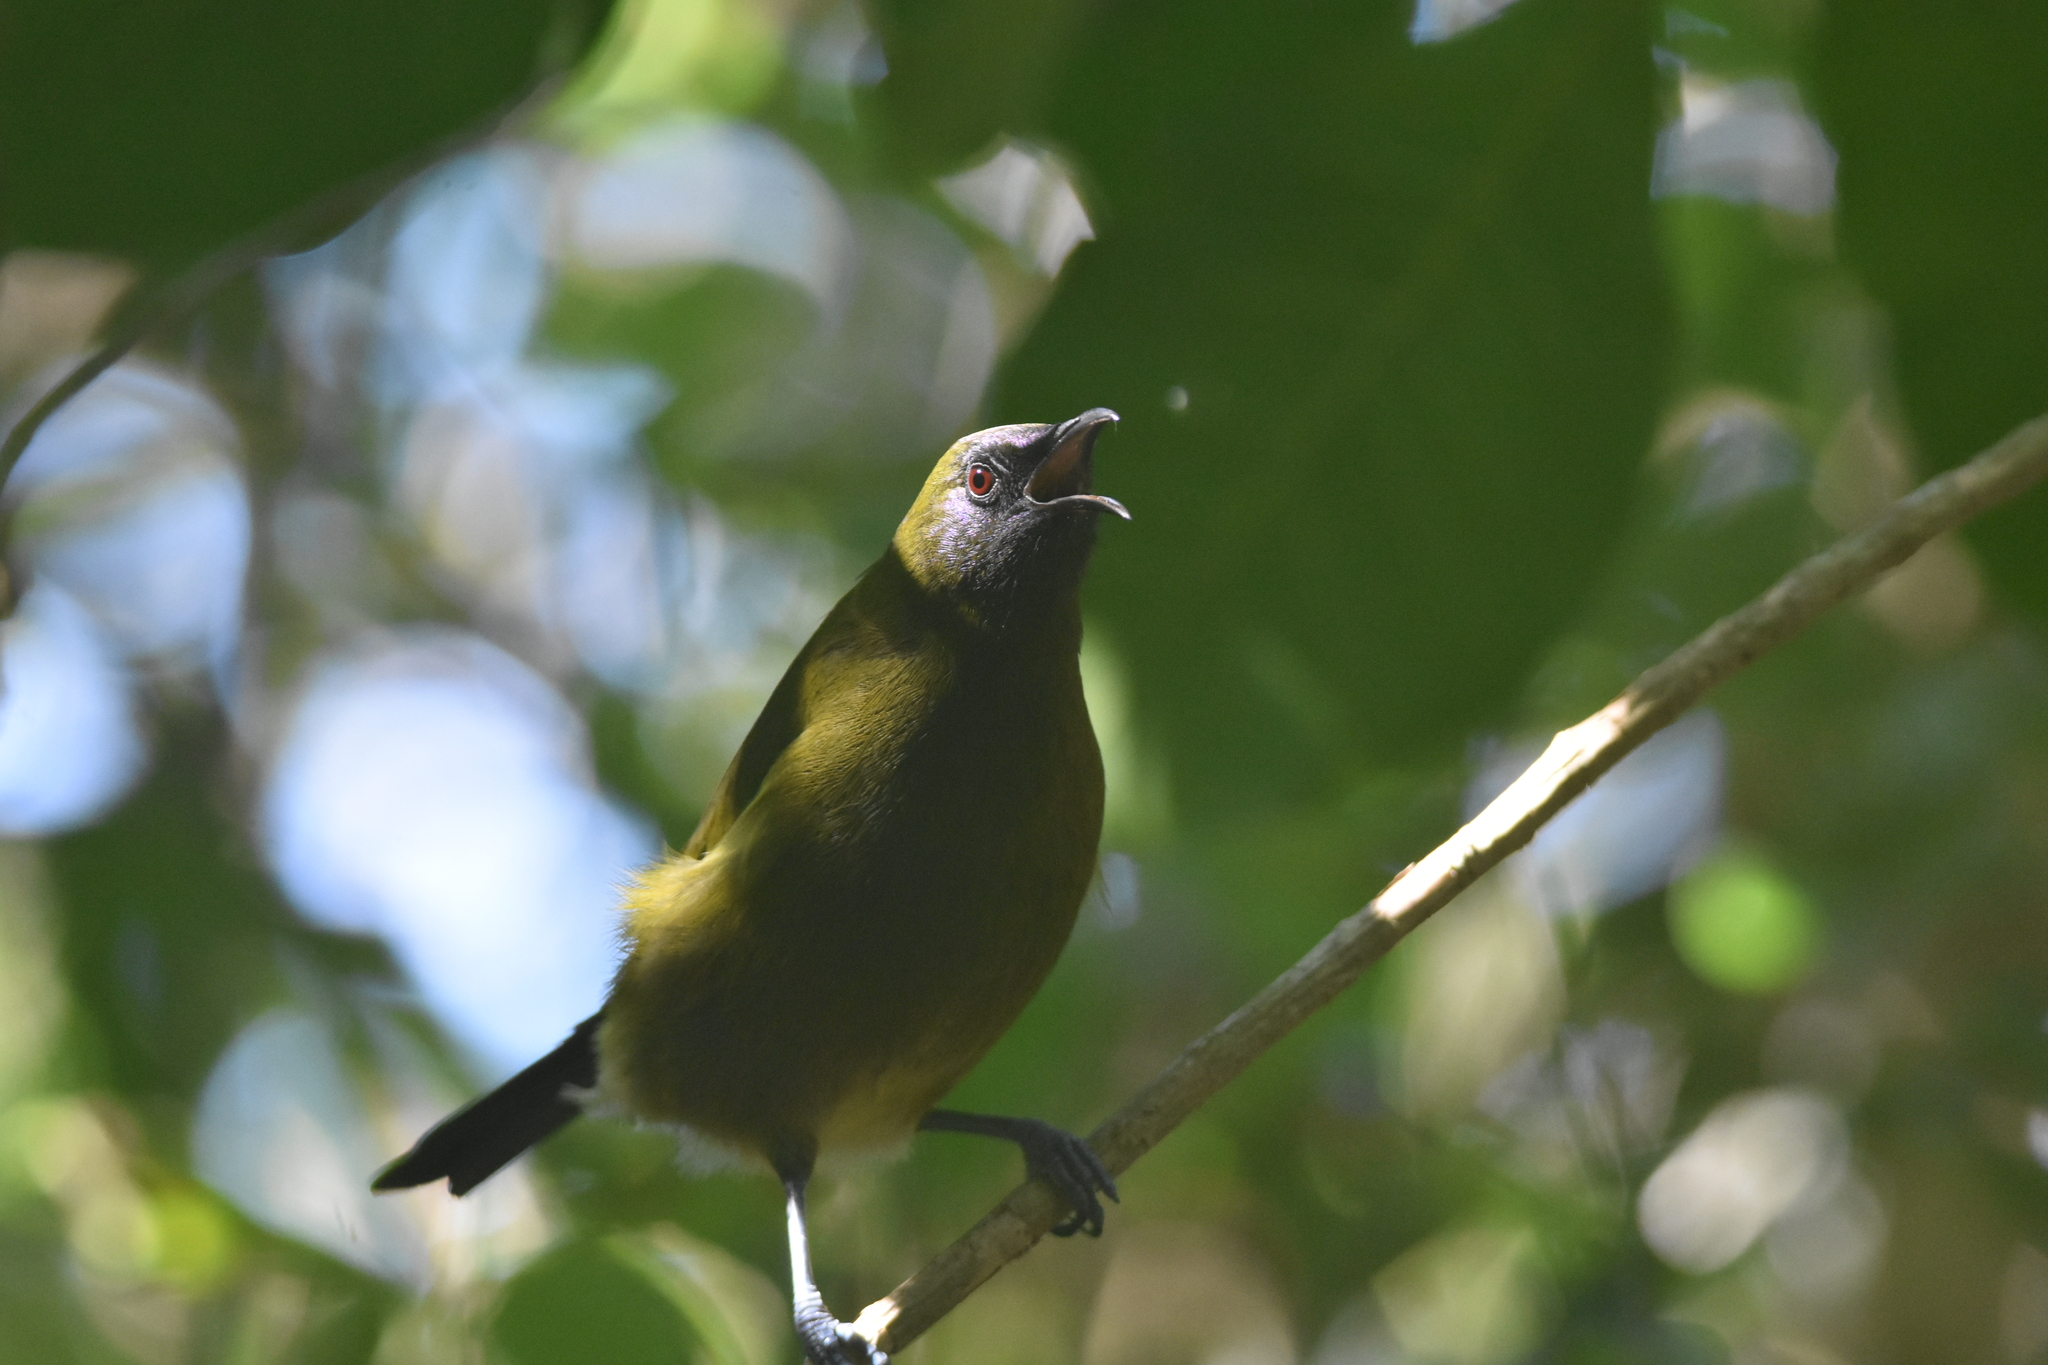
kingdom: Animalia
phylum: Chordata
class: Aves
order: Passeriformes
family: Meliphagidae
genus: Anthornis
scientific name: Anthornis melanura
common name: New zealand bellbird
